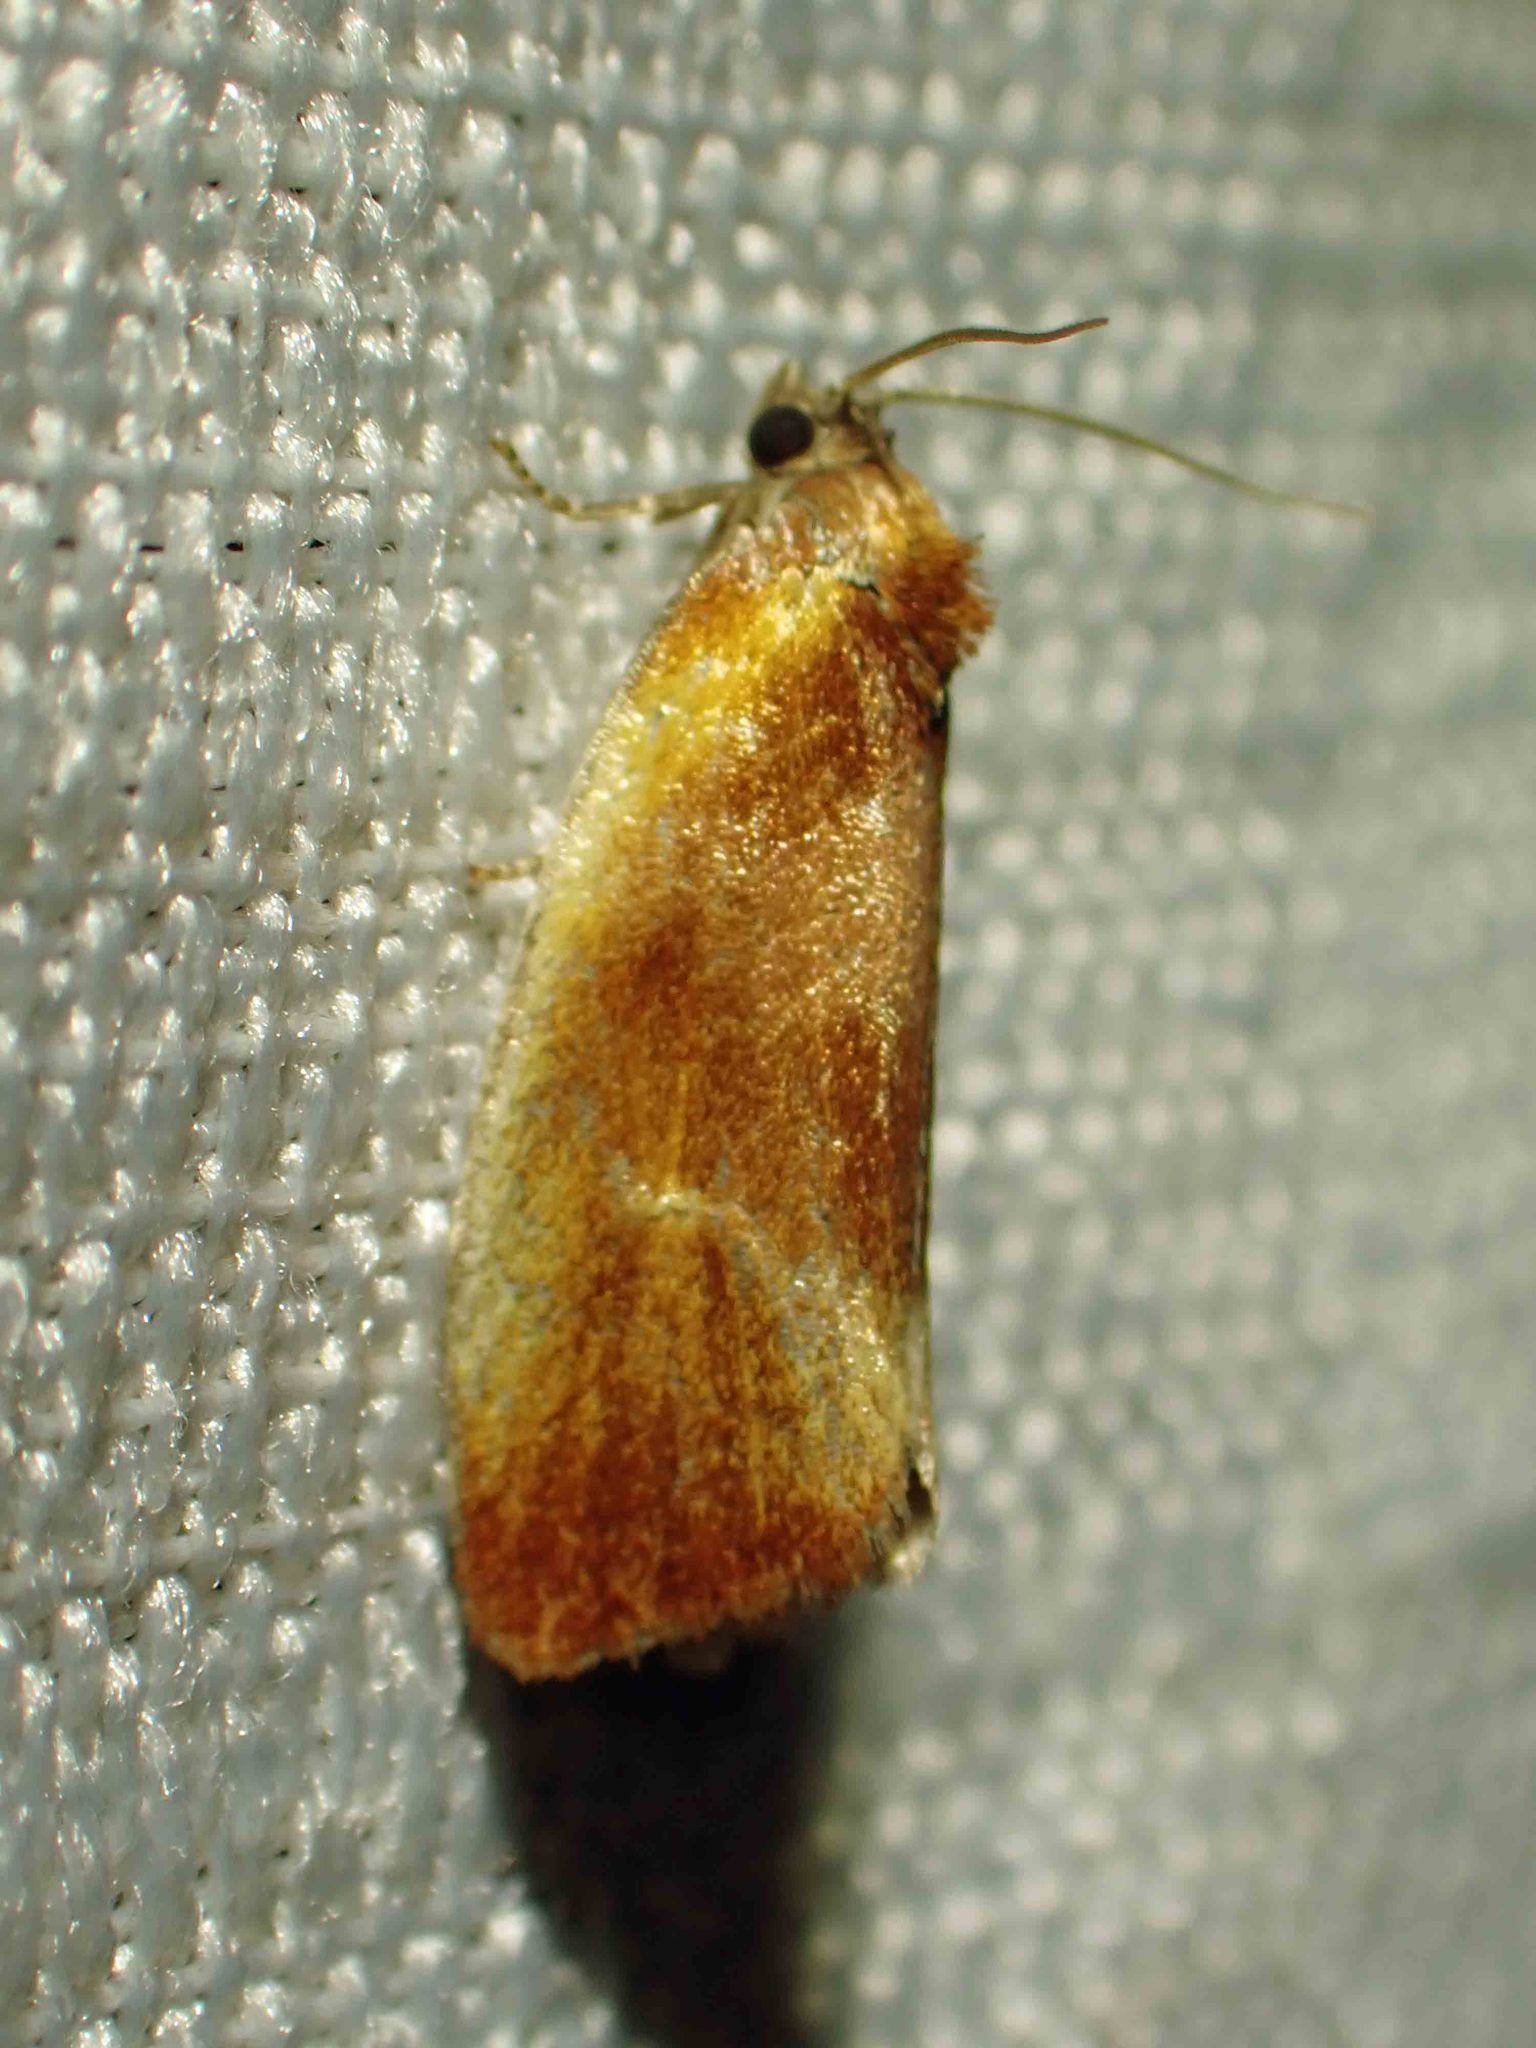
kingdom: Animalia
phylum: Arthropoda
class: Insecta
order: Lepidoptera
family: Tortricidae
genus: Eulia
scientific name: Eulia ministrana
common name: Brassy twist
